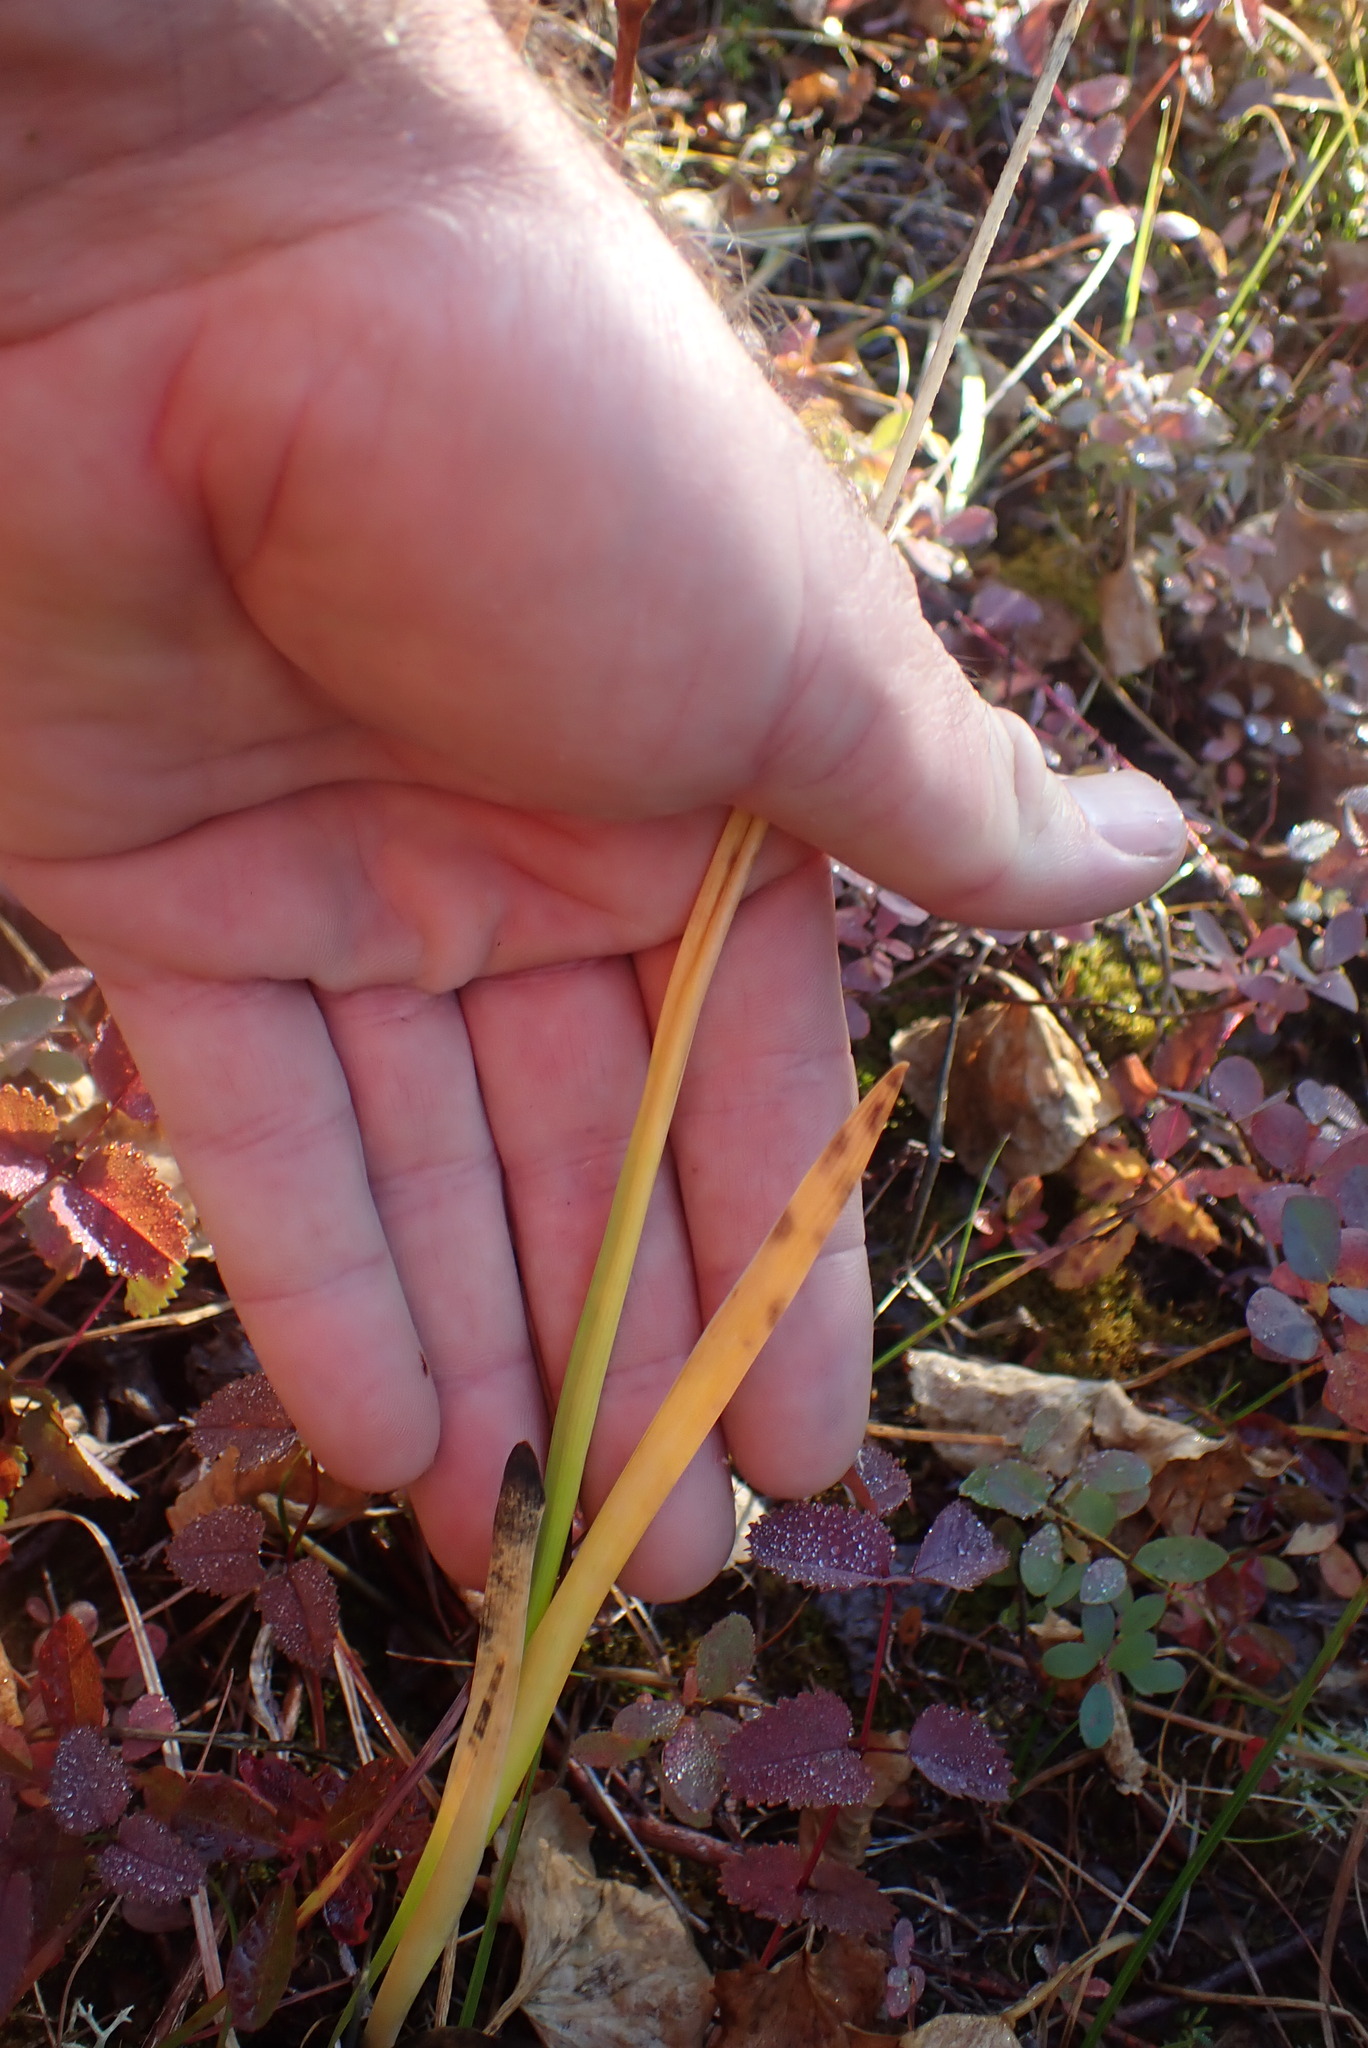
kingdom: Plantae
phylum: Tracheophyta
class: Liliopsida
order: Alismatales
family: Tofieldiaceae
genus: Triantha
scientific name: Triantha occidentalis
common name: Western false asphodel
